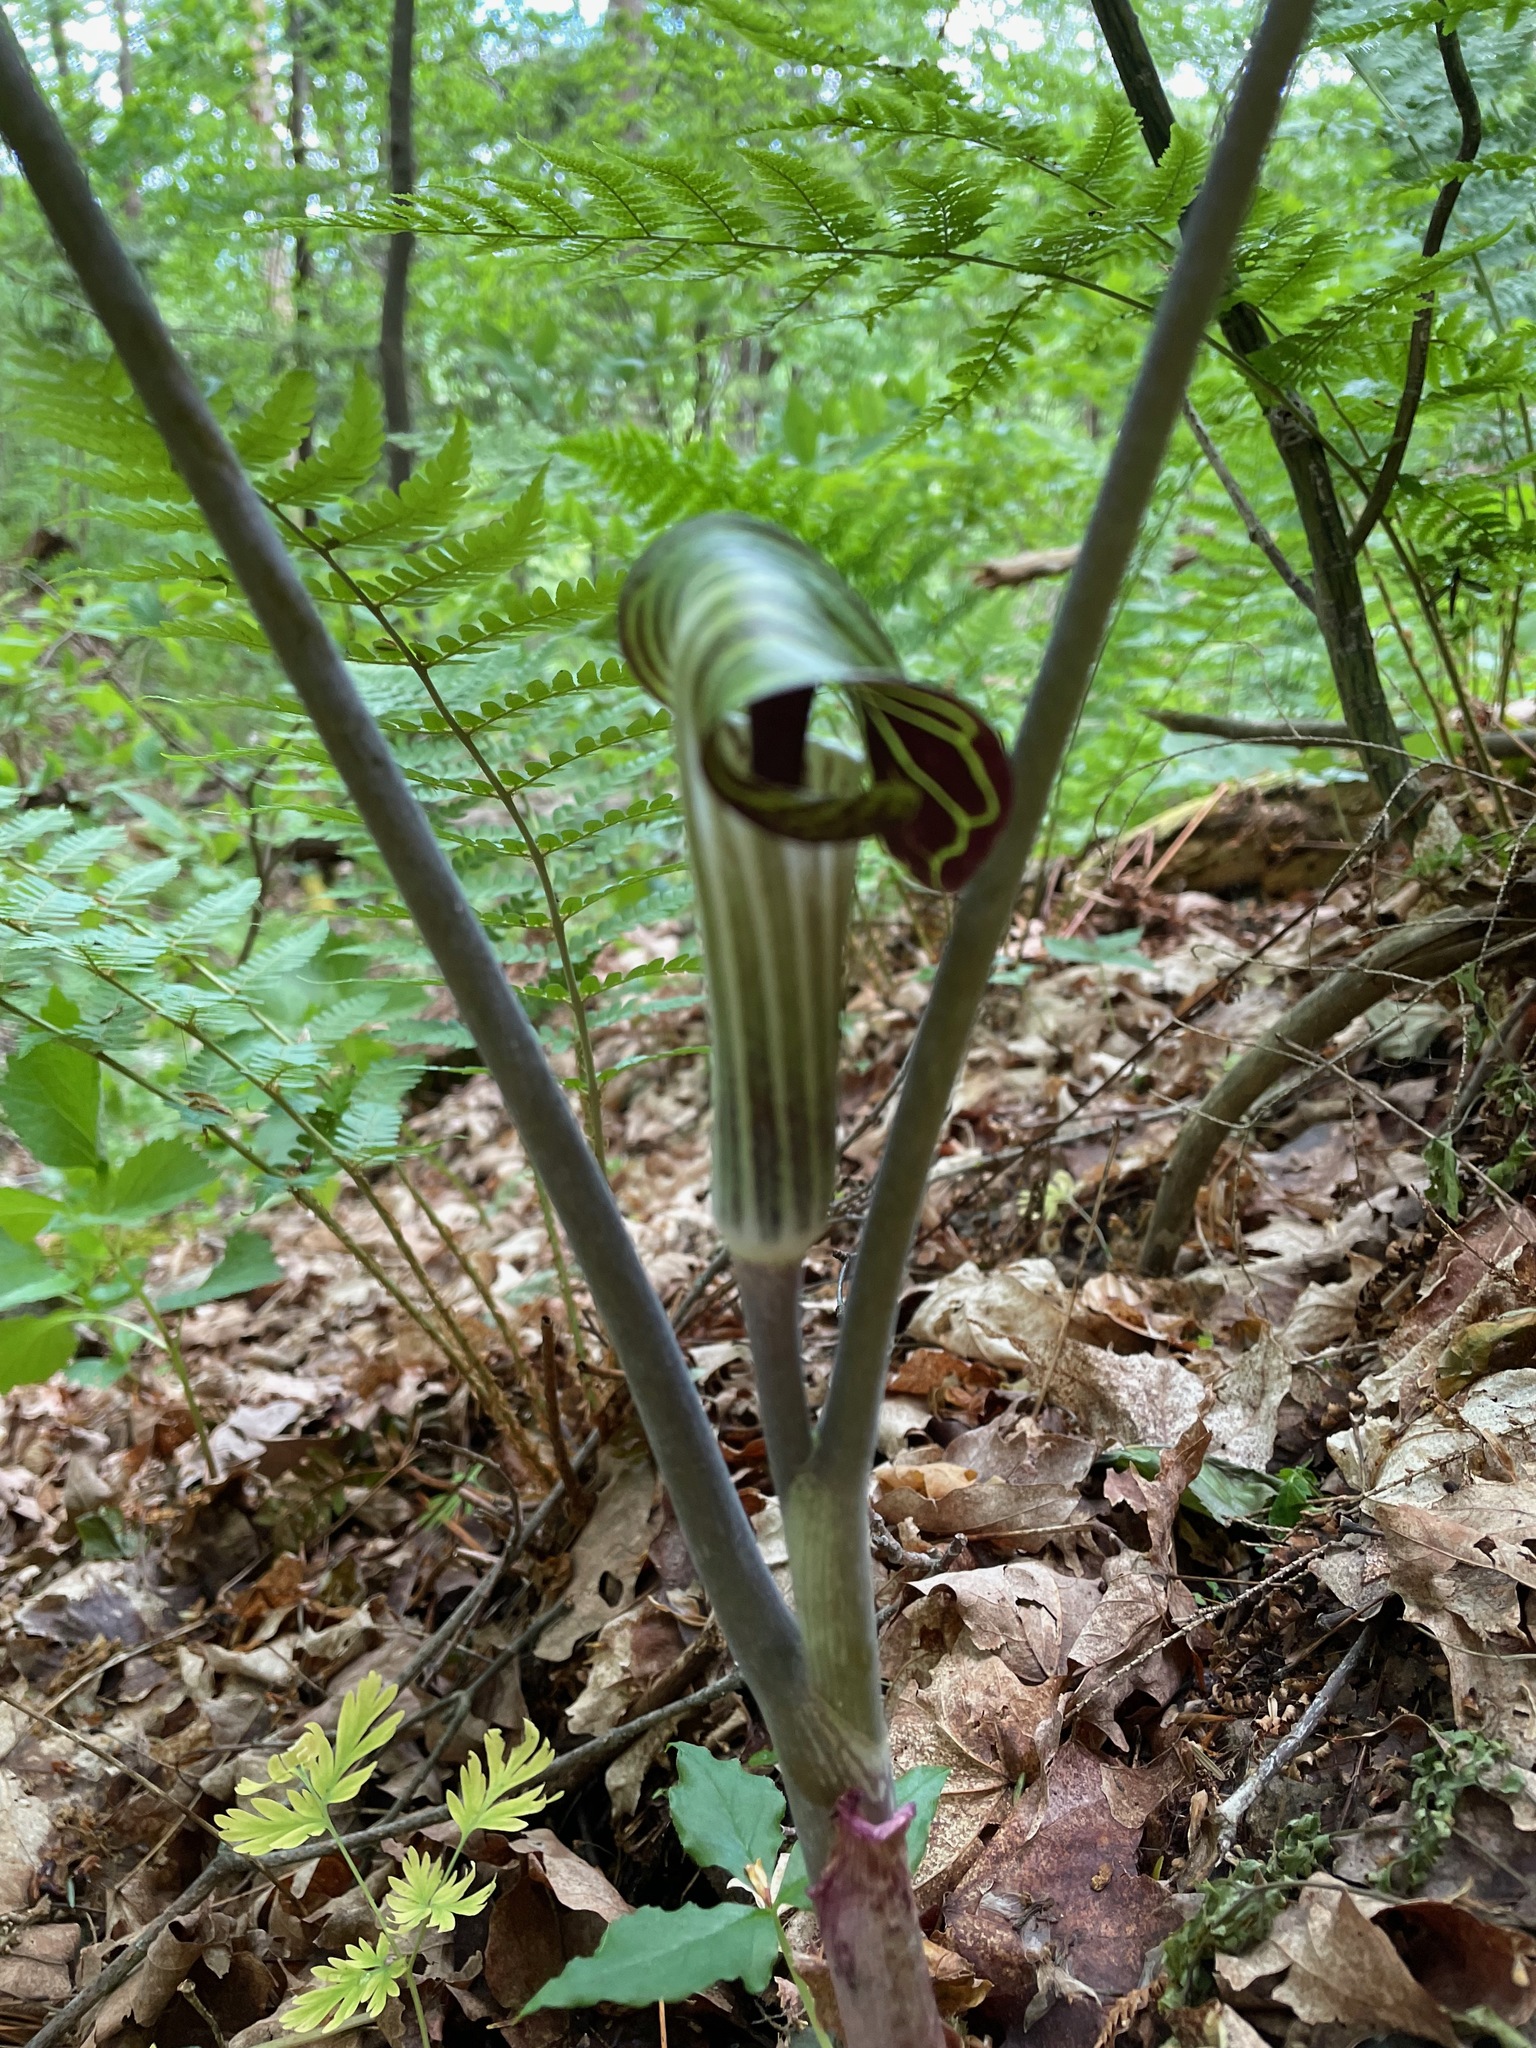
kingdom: Plantae
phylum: Tracheophyta
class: Liliopsida
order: Alismatales
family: Araceae
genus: Arisaema
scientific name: Arisaema triphyllum
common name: Jack-in-the-pulpit
